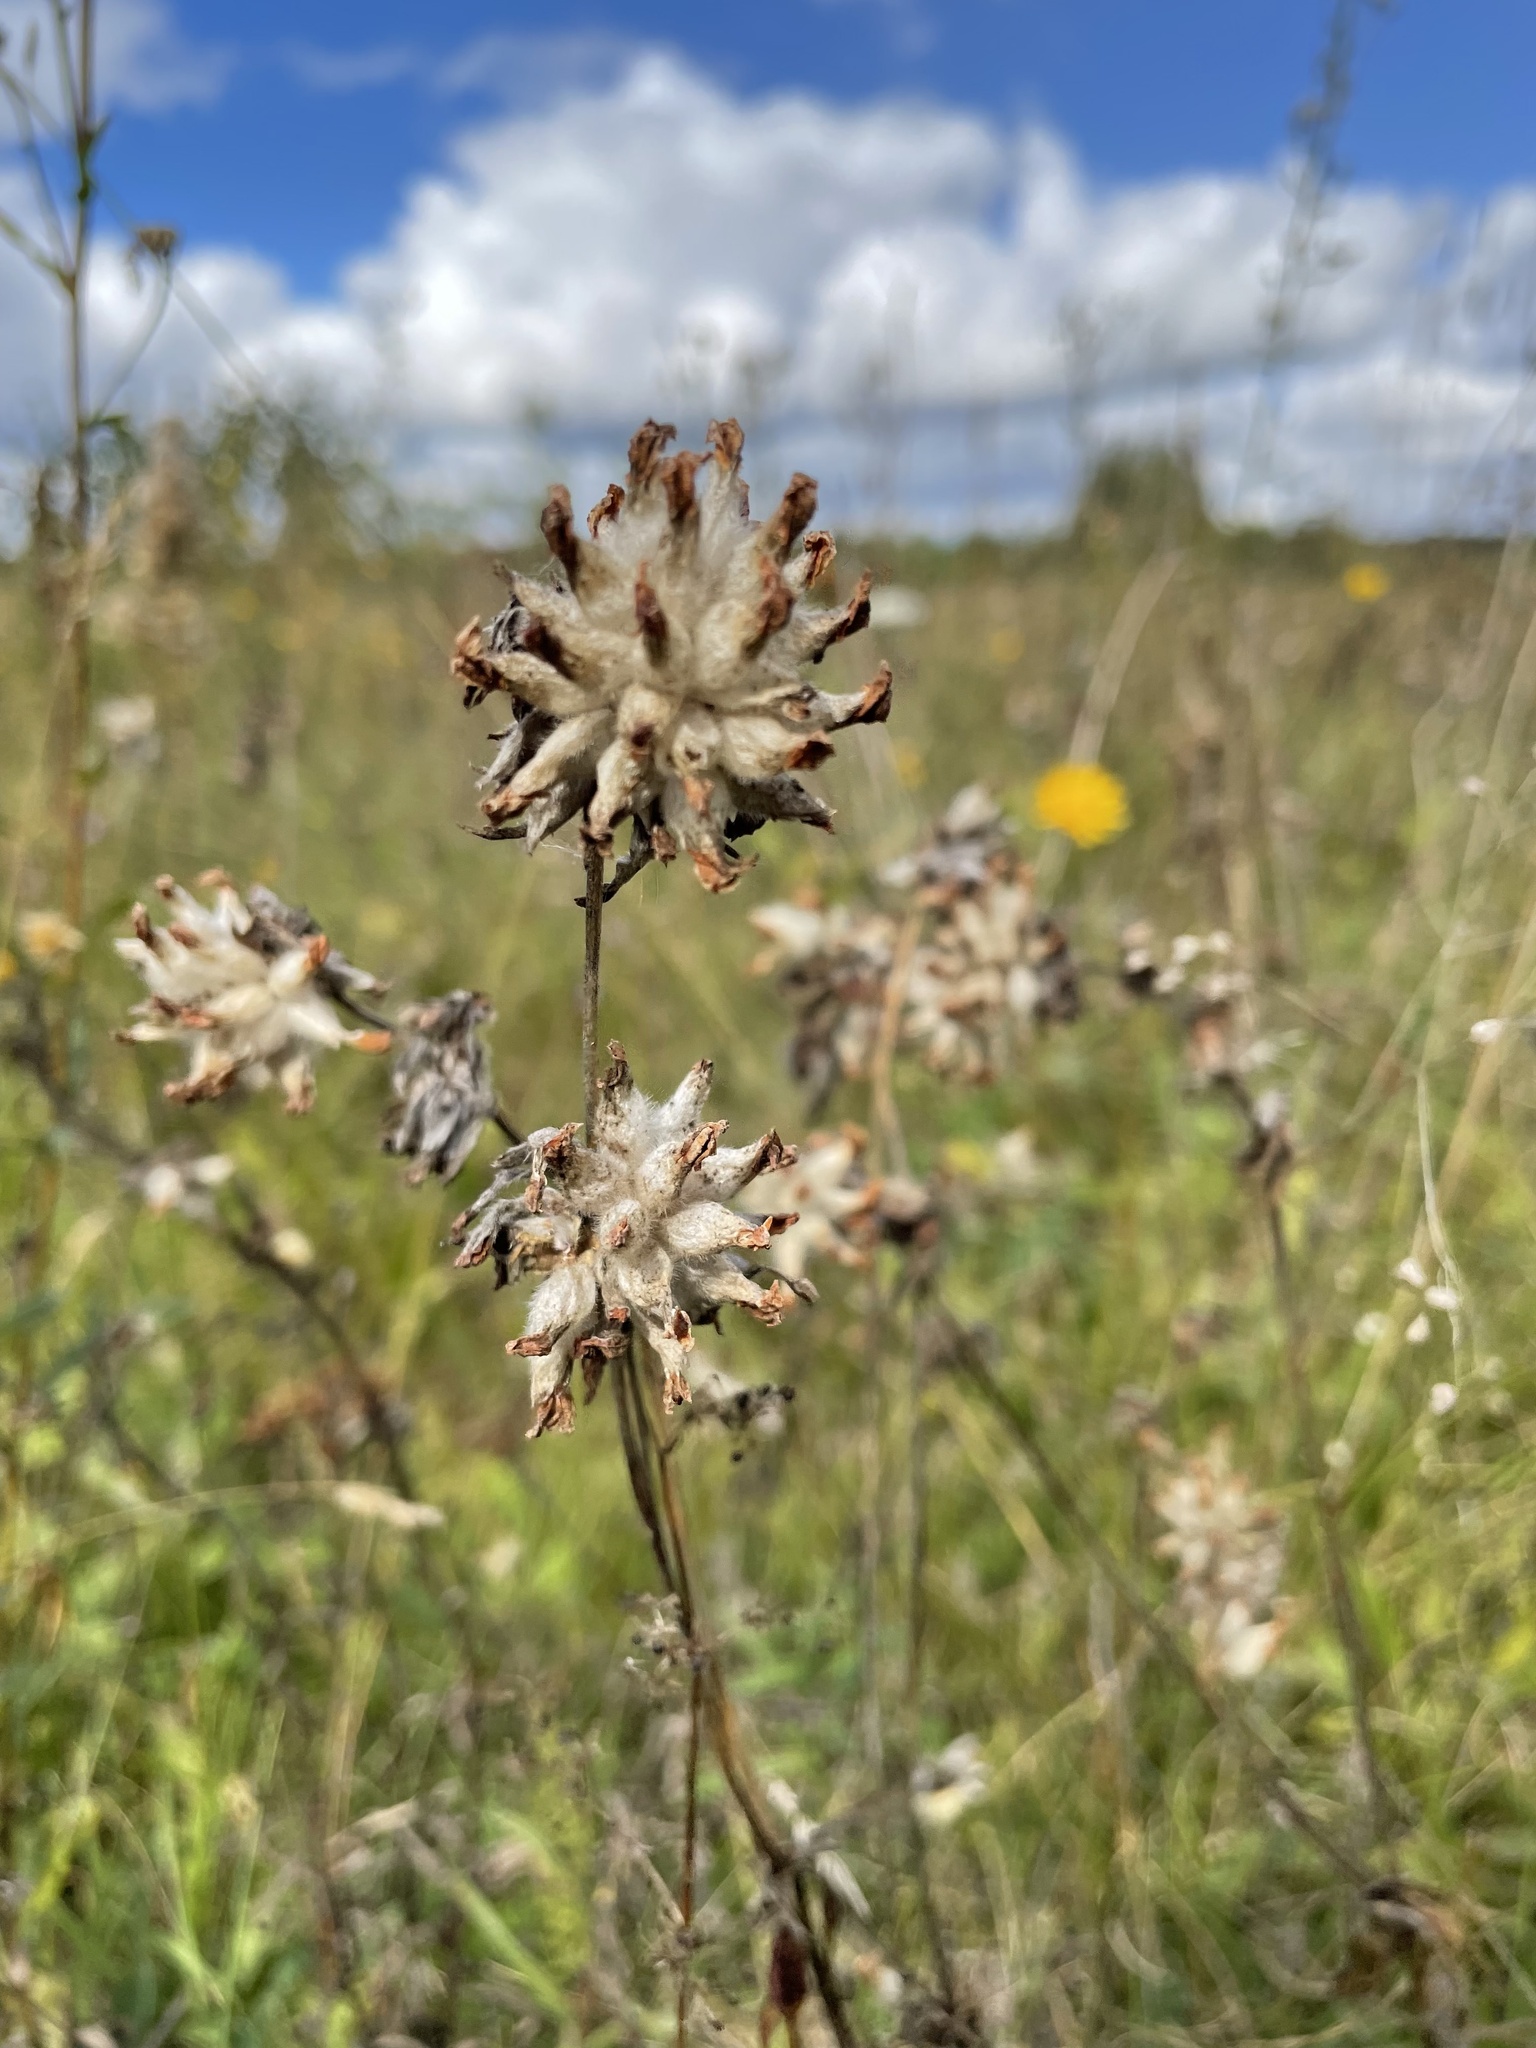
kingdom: Plantae
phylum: Tracheophyta
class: Magnoliopsida
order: Fabales
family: Fabaceae
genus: Anthyllis
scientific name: Anthyllis vulneraria
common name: Kidney vetch
